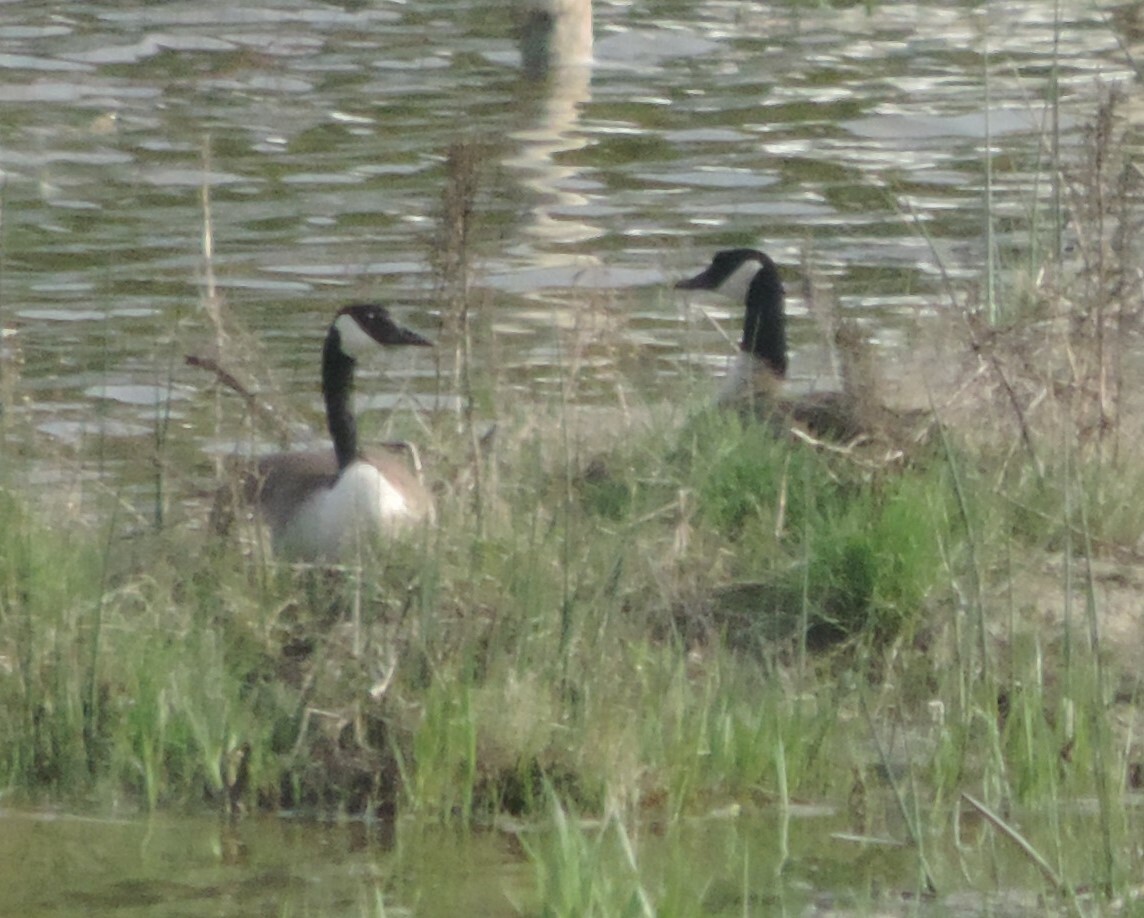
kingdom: Animalia
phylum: Chordata
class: Aves
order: Anseriformes
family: Anatidae
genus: Branta
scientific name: Branta canadensis
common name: Canada goose
